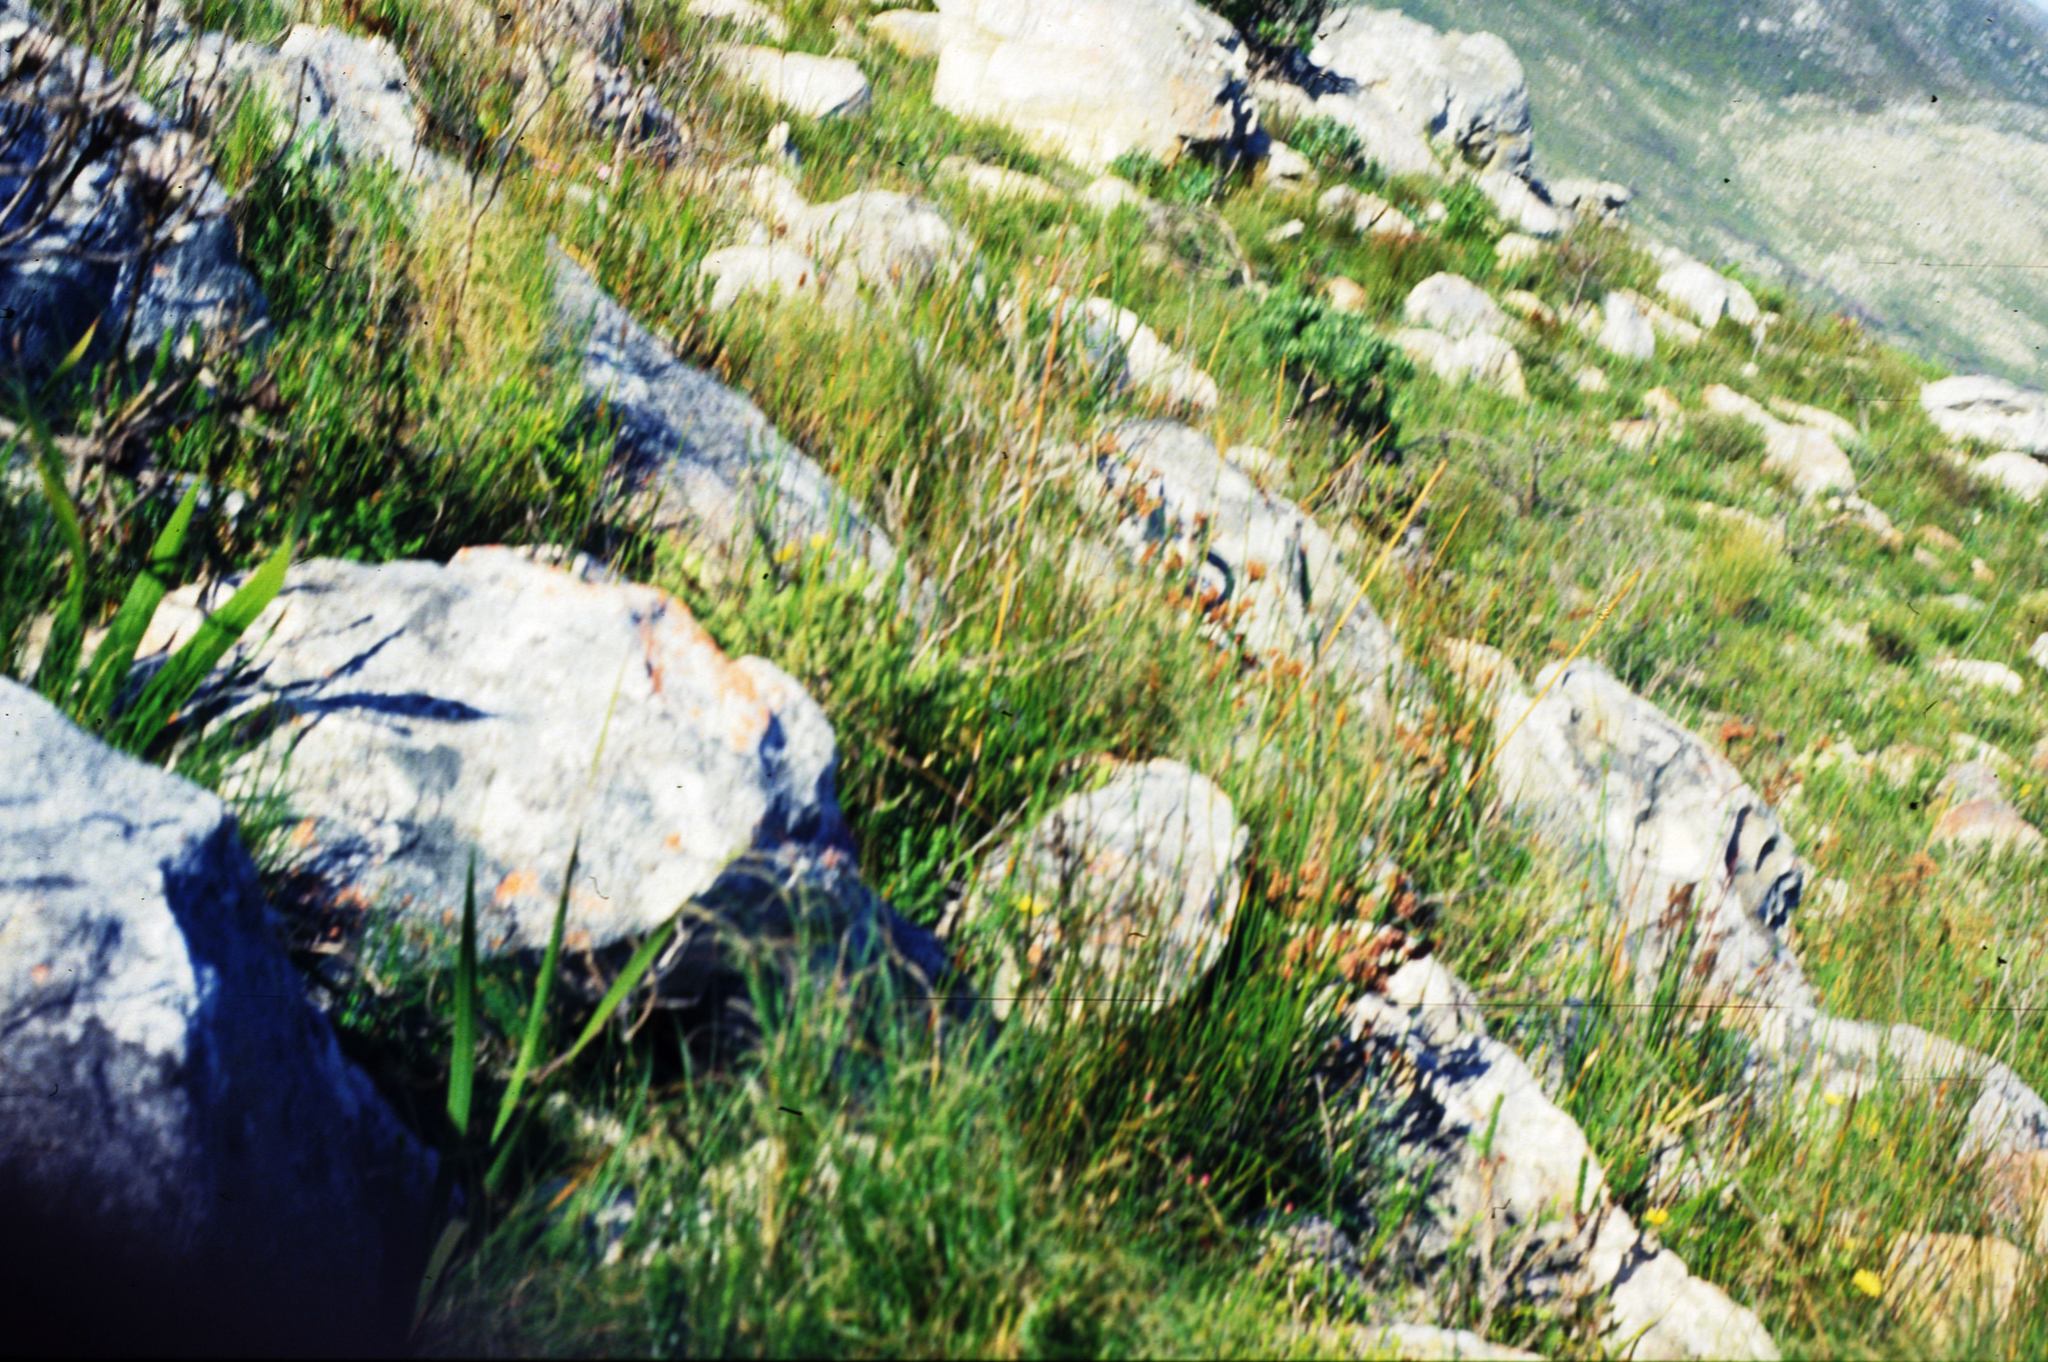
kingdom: Plantae
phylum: Tracheophyta
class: Magnoliopsida
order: Bruniales
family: Bruniaceae
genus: Audouinia
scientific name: Audouinia capitata
